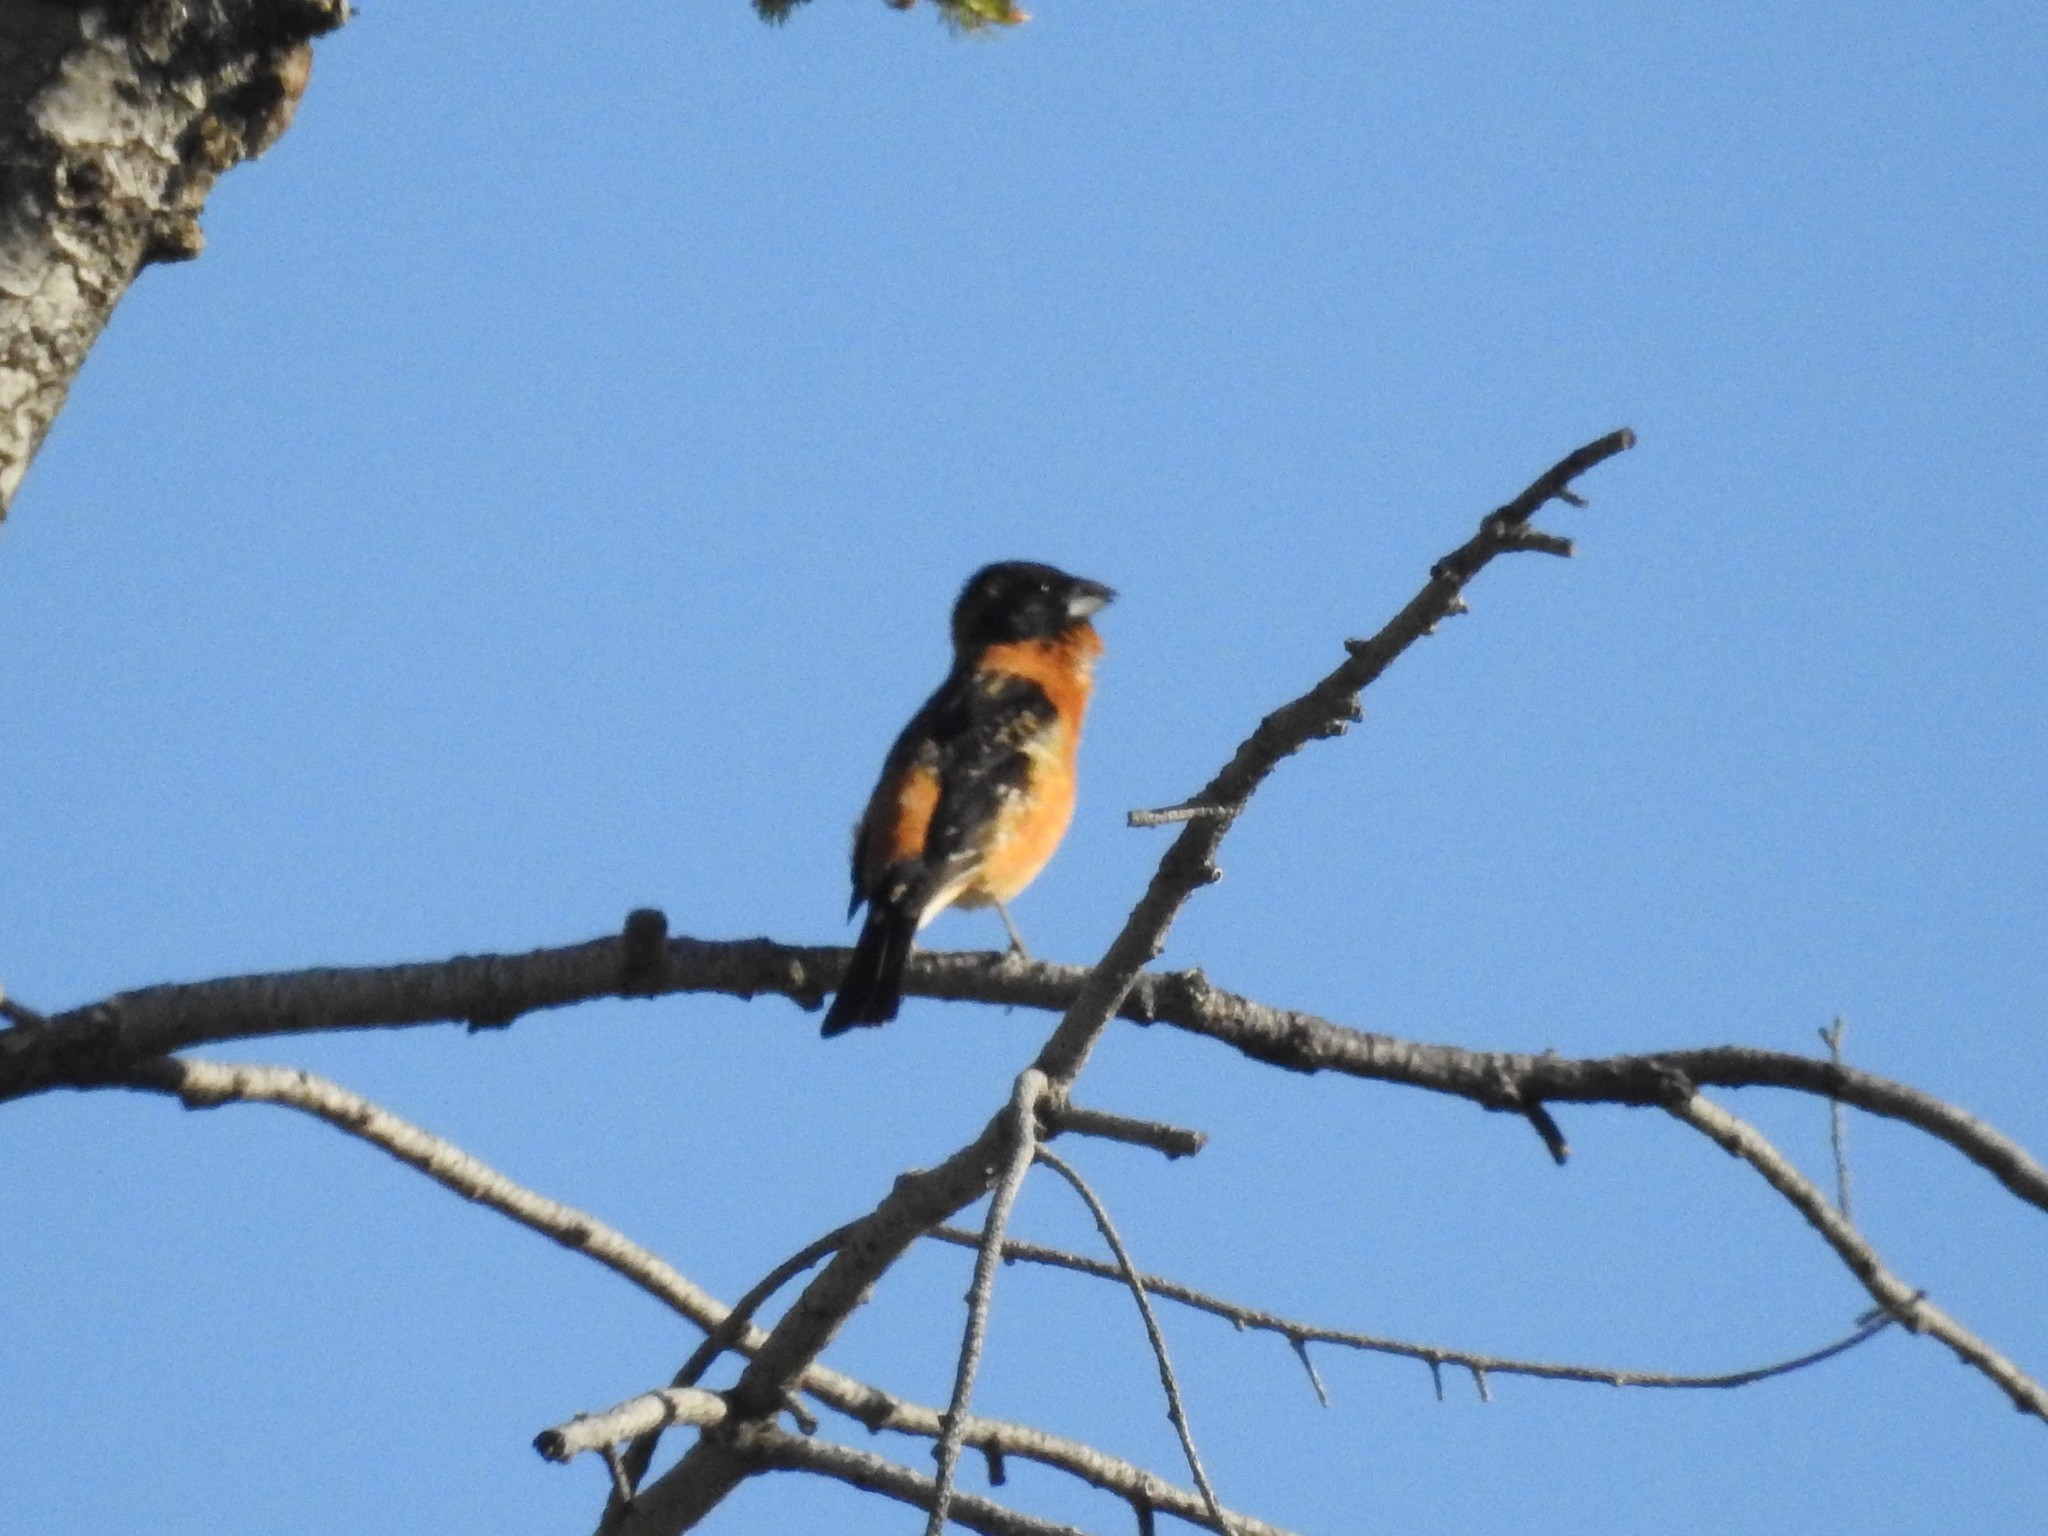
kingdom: Animalia
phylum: Chordata
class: Aves
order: Passeriformes
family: Cardinalidae
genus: Pheucticus
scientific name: Pheucticus melanocephalus
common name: Black-headed grosbeak
